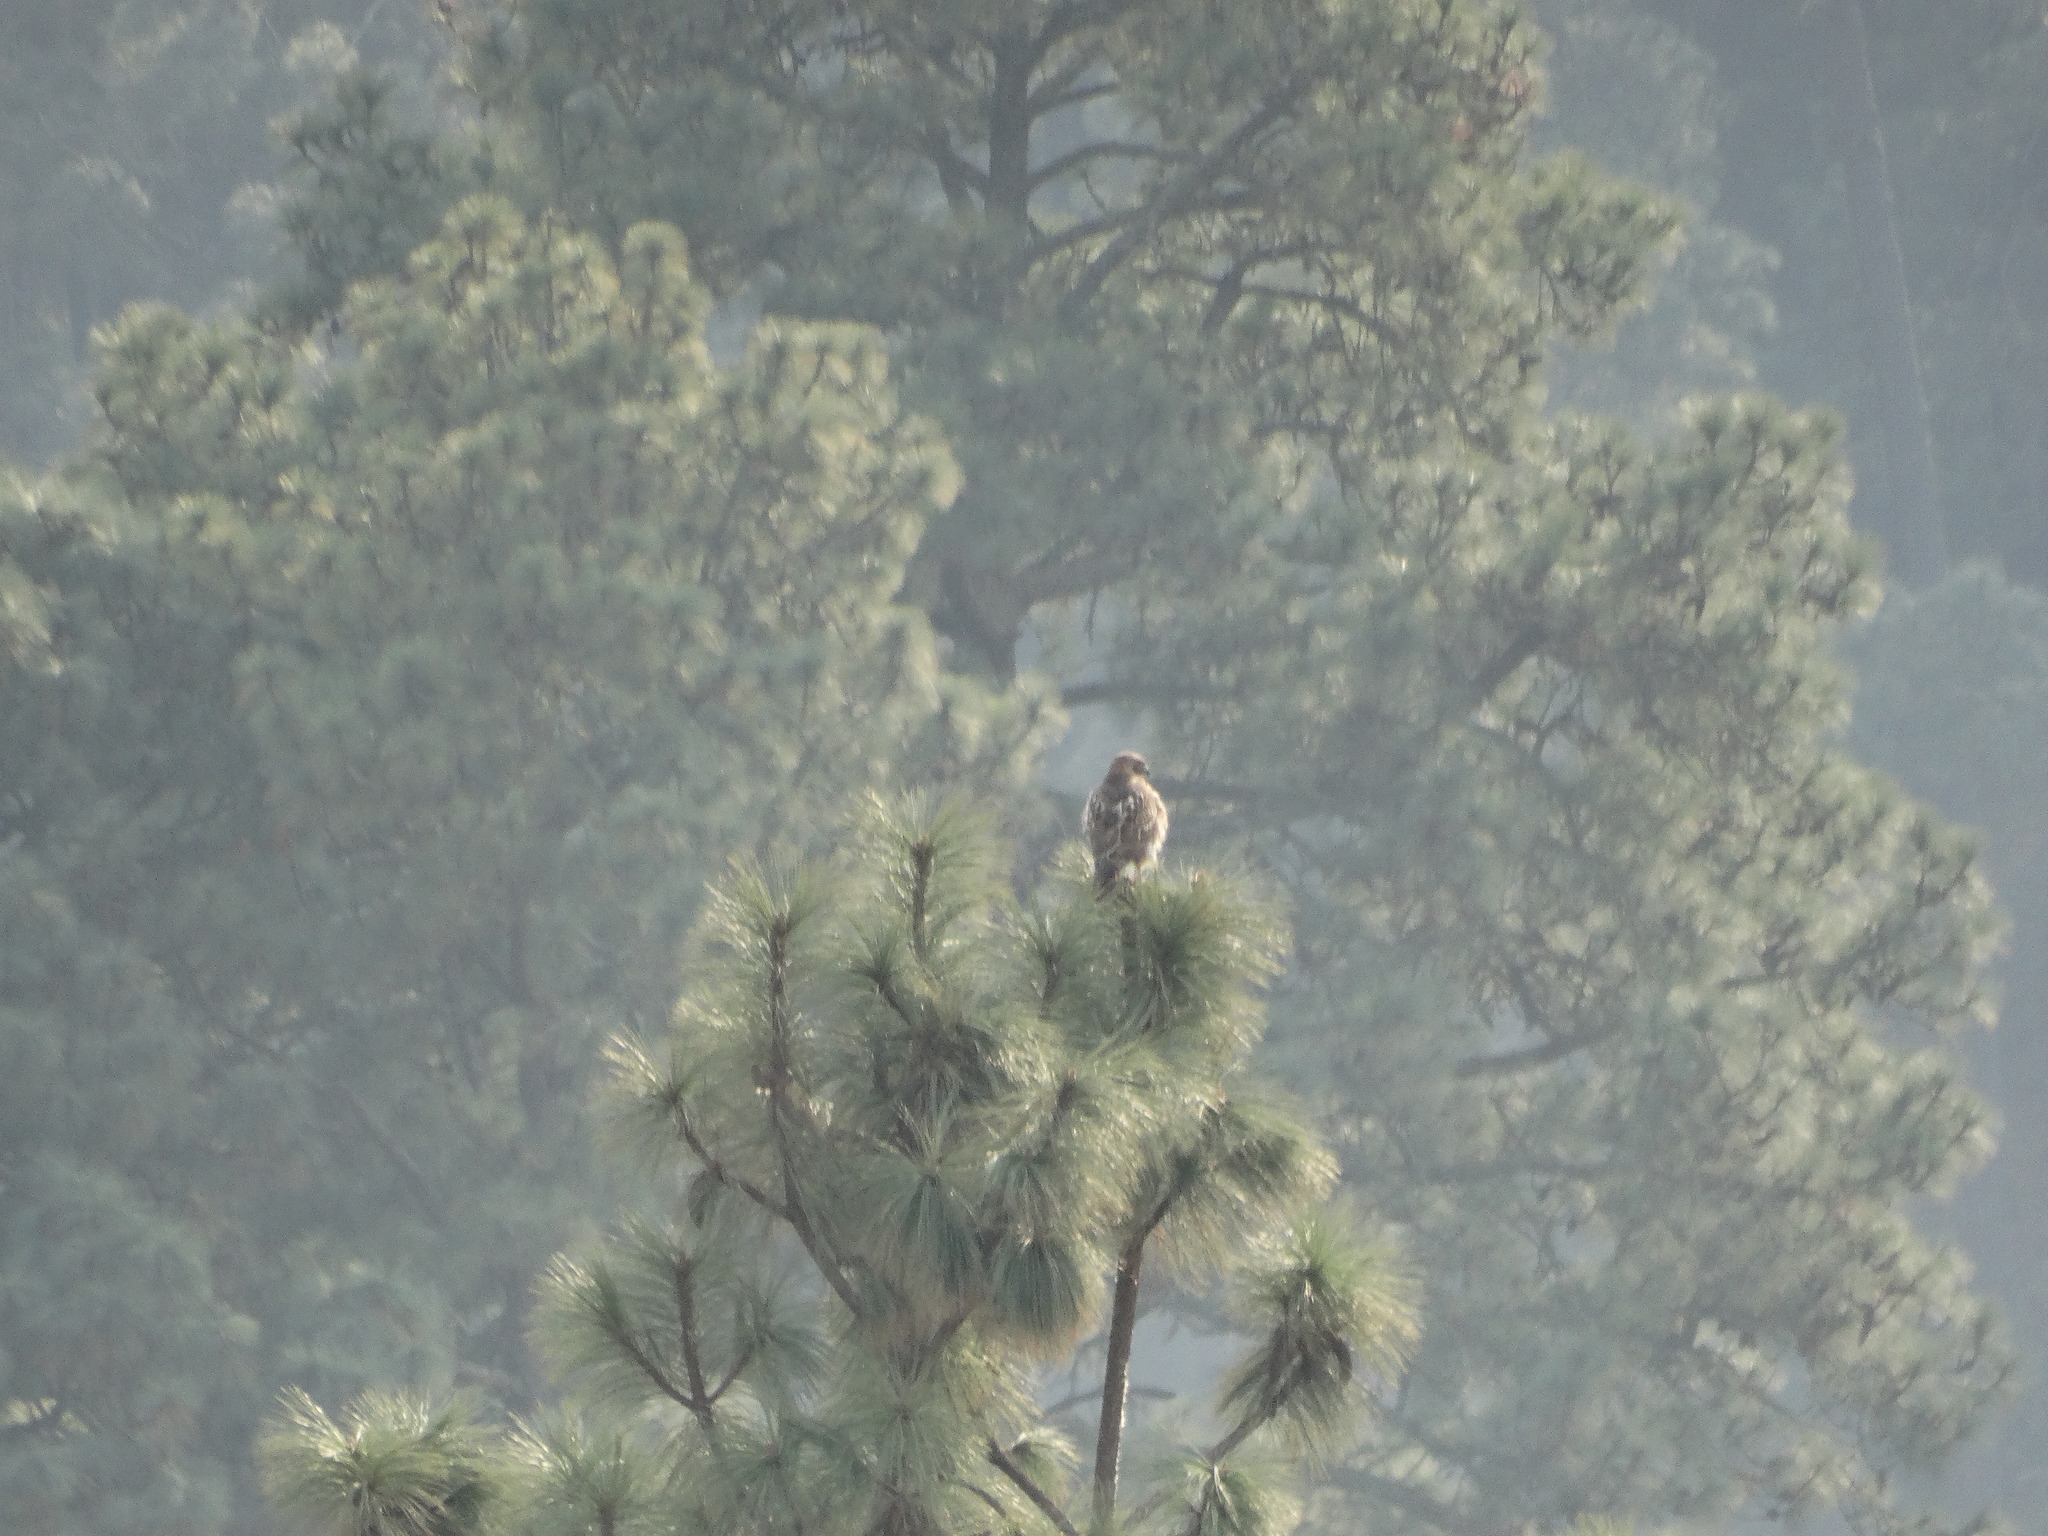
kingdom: Animalia
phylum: Chordata
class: Aves
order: Accipitriformes
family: Accipitridae
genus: Buteo
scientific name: Buteo jamaicensis
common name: Red-tailed hawk
